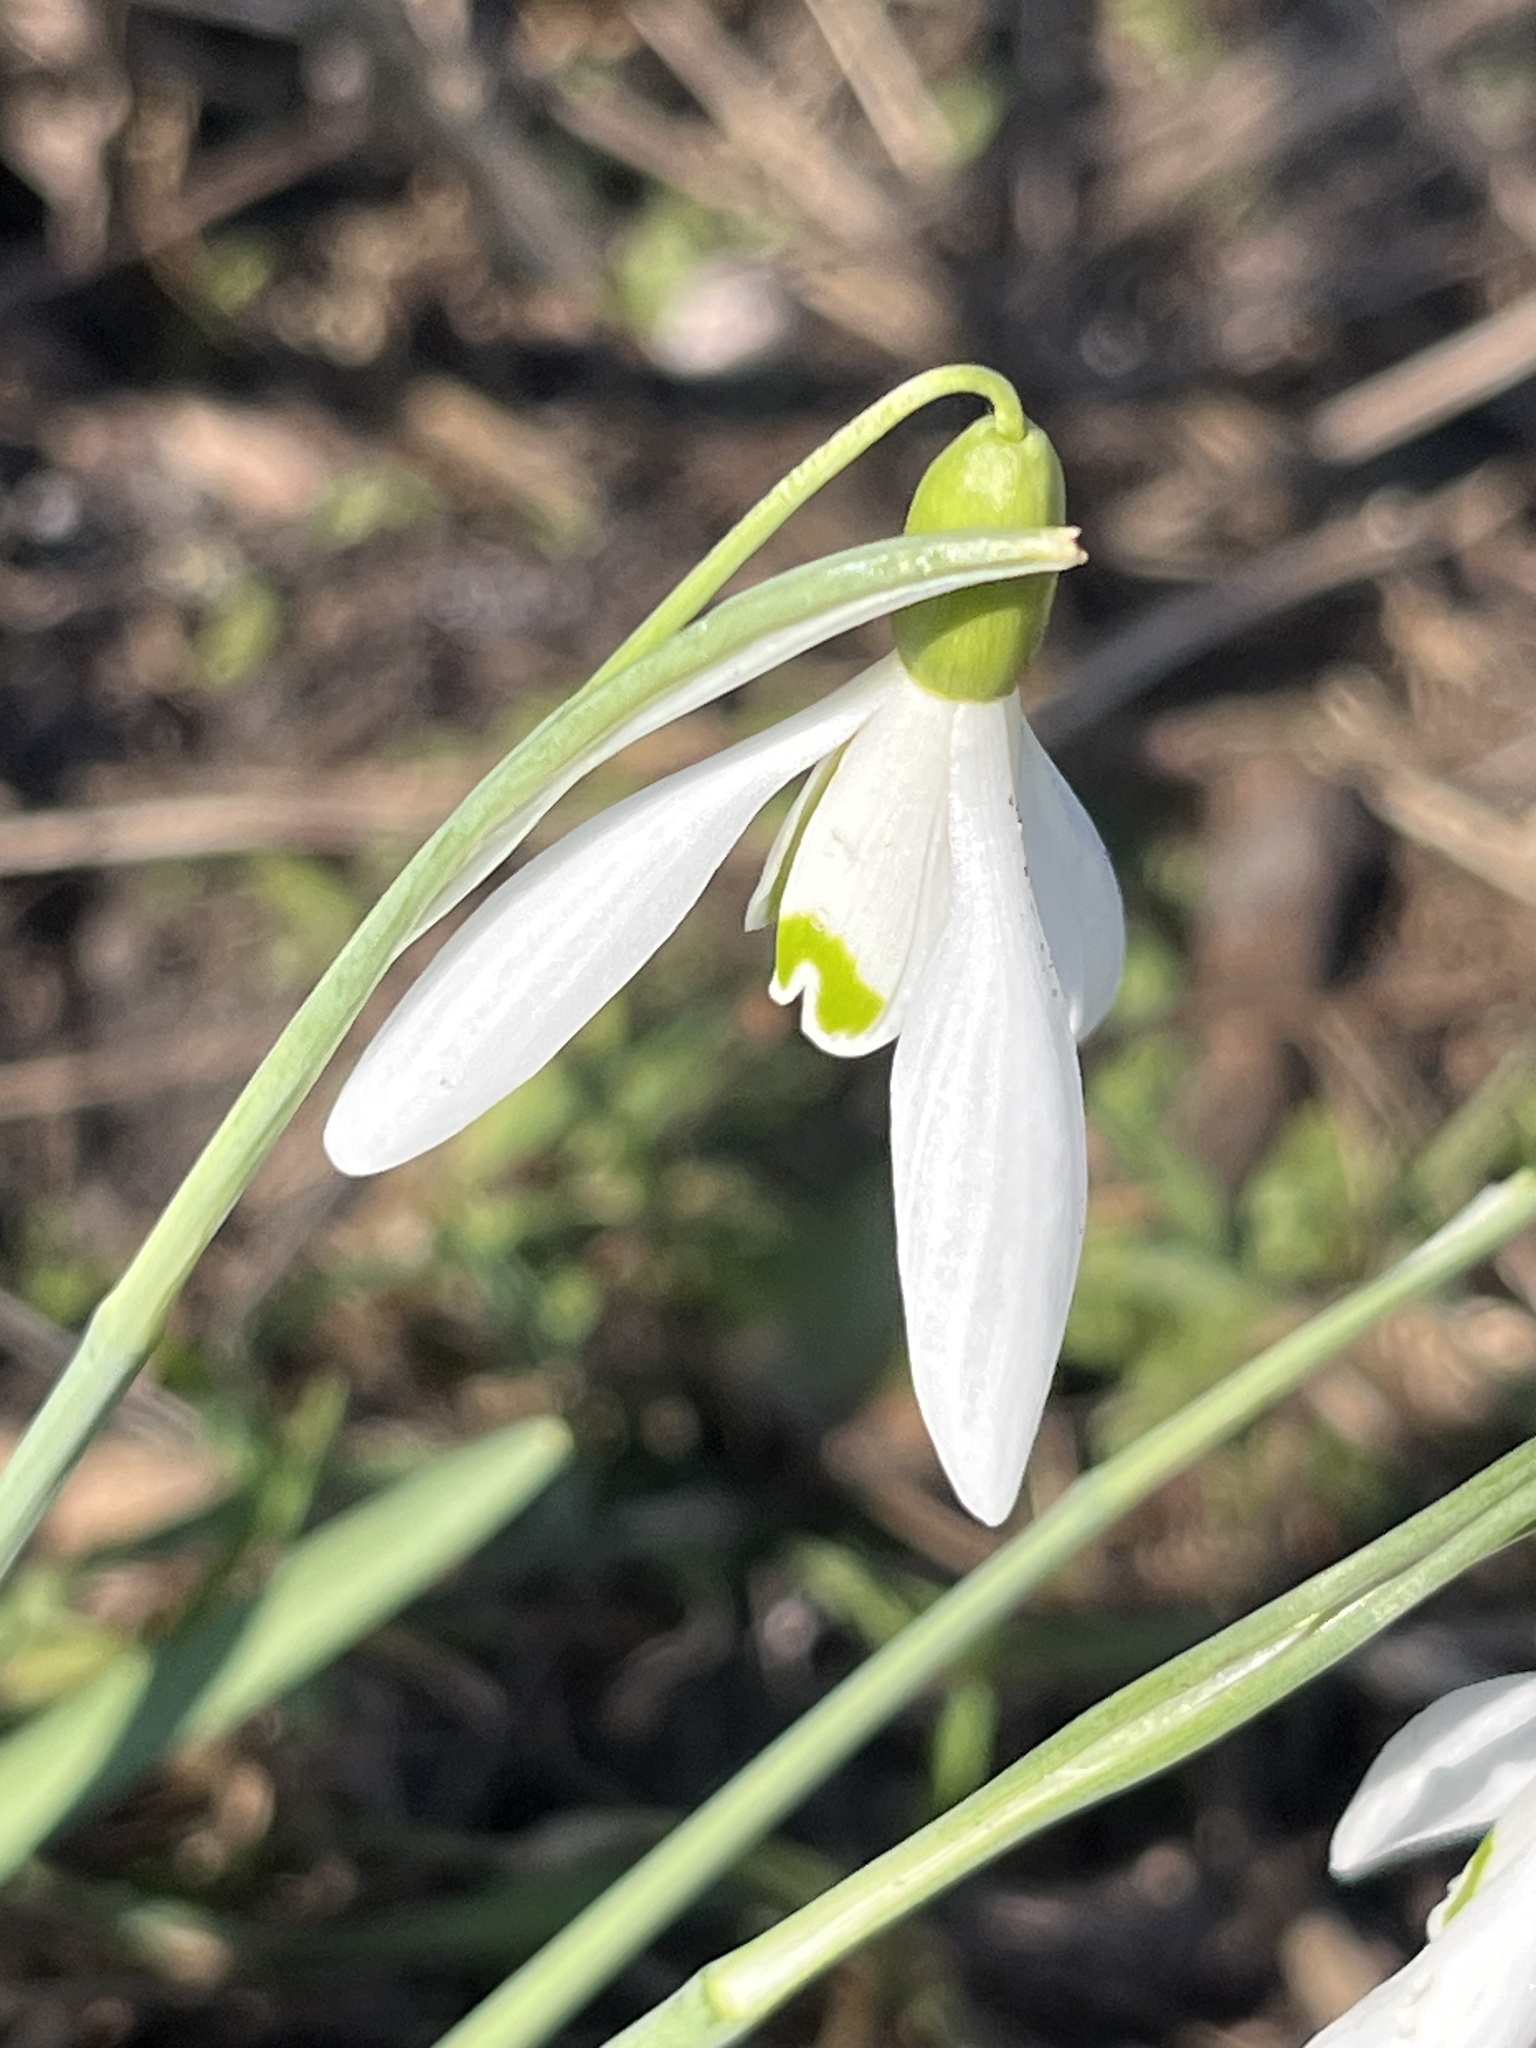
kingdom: Plantae
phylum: Tracheophyta
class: Liliopsida
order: Asparagales
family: Amaryllidaceae
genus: Galanthus
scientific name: Galanthus nivalis
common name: Snowdrop
